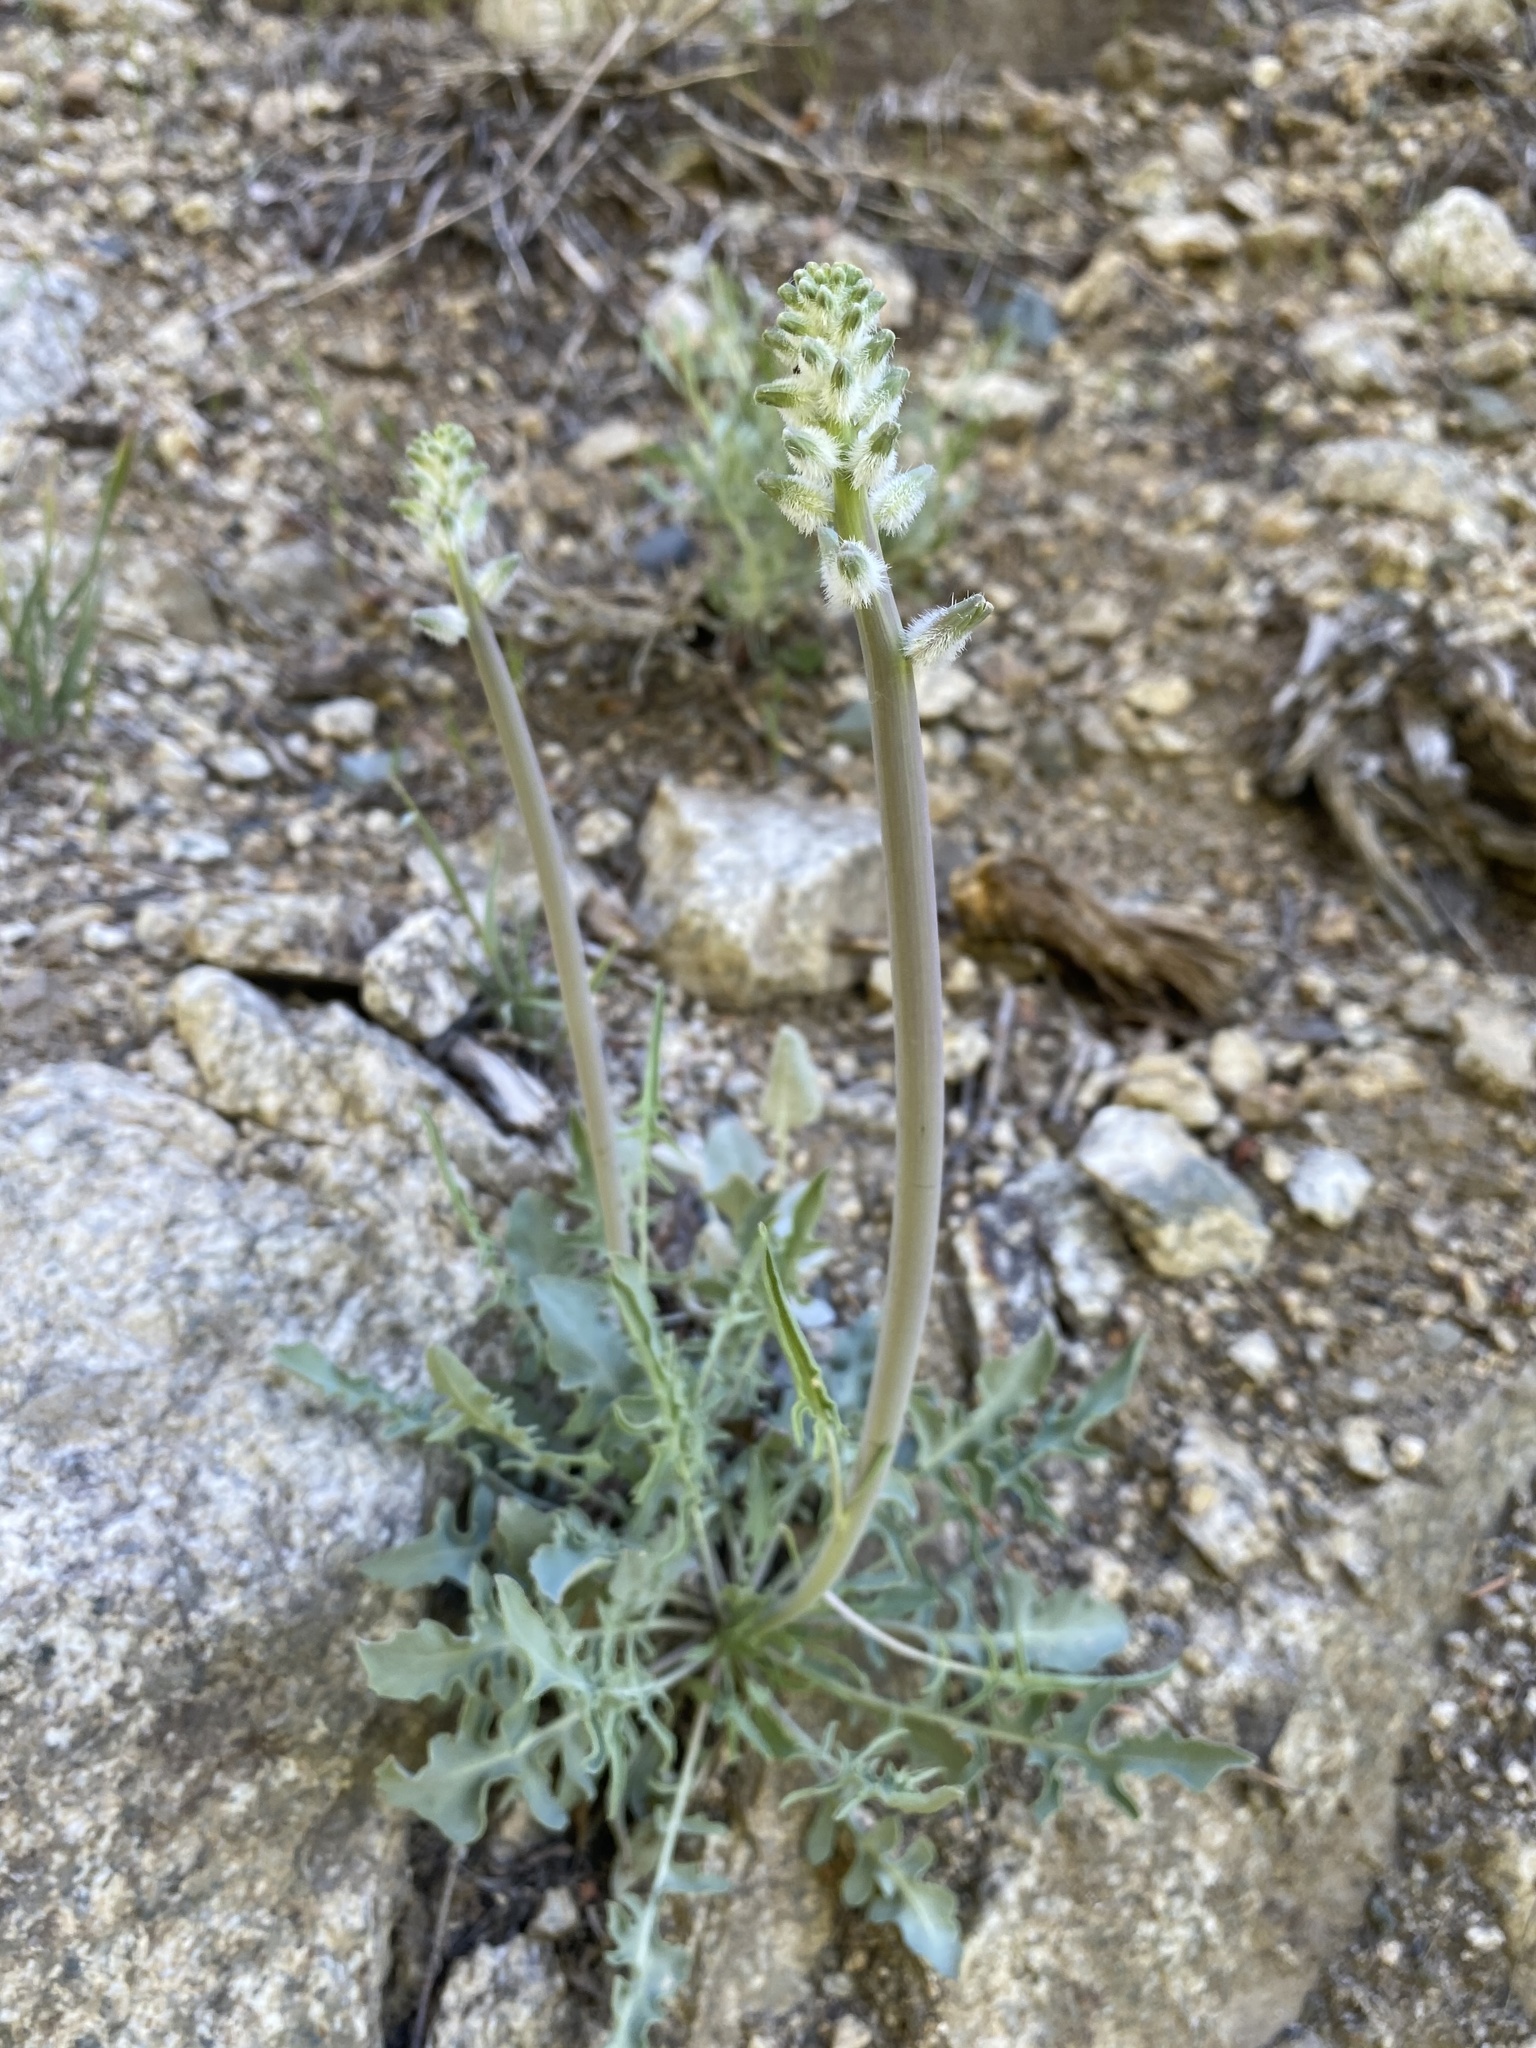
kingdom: Plantae
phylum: Tracheophyta
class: Magnoliopsida
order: Brassicales
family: Brassicaceae
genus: Streptanthus
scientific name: Streptanthus crassicaulis
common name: Thick-stem wild cabbage
